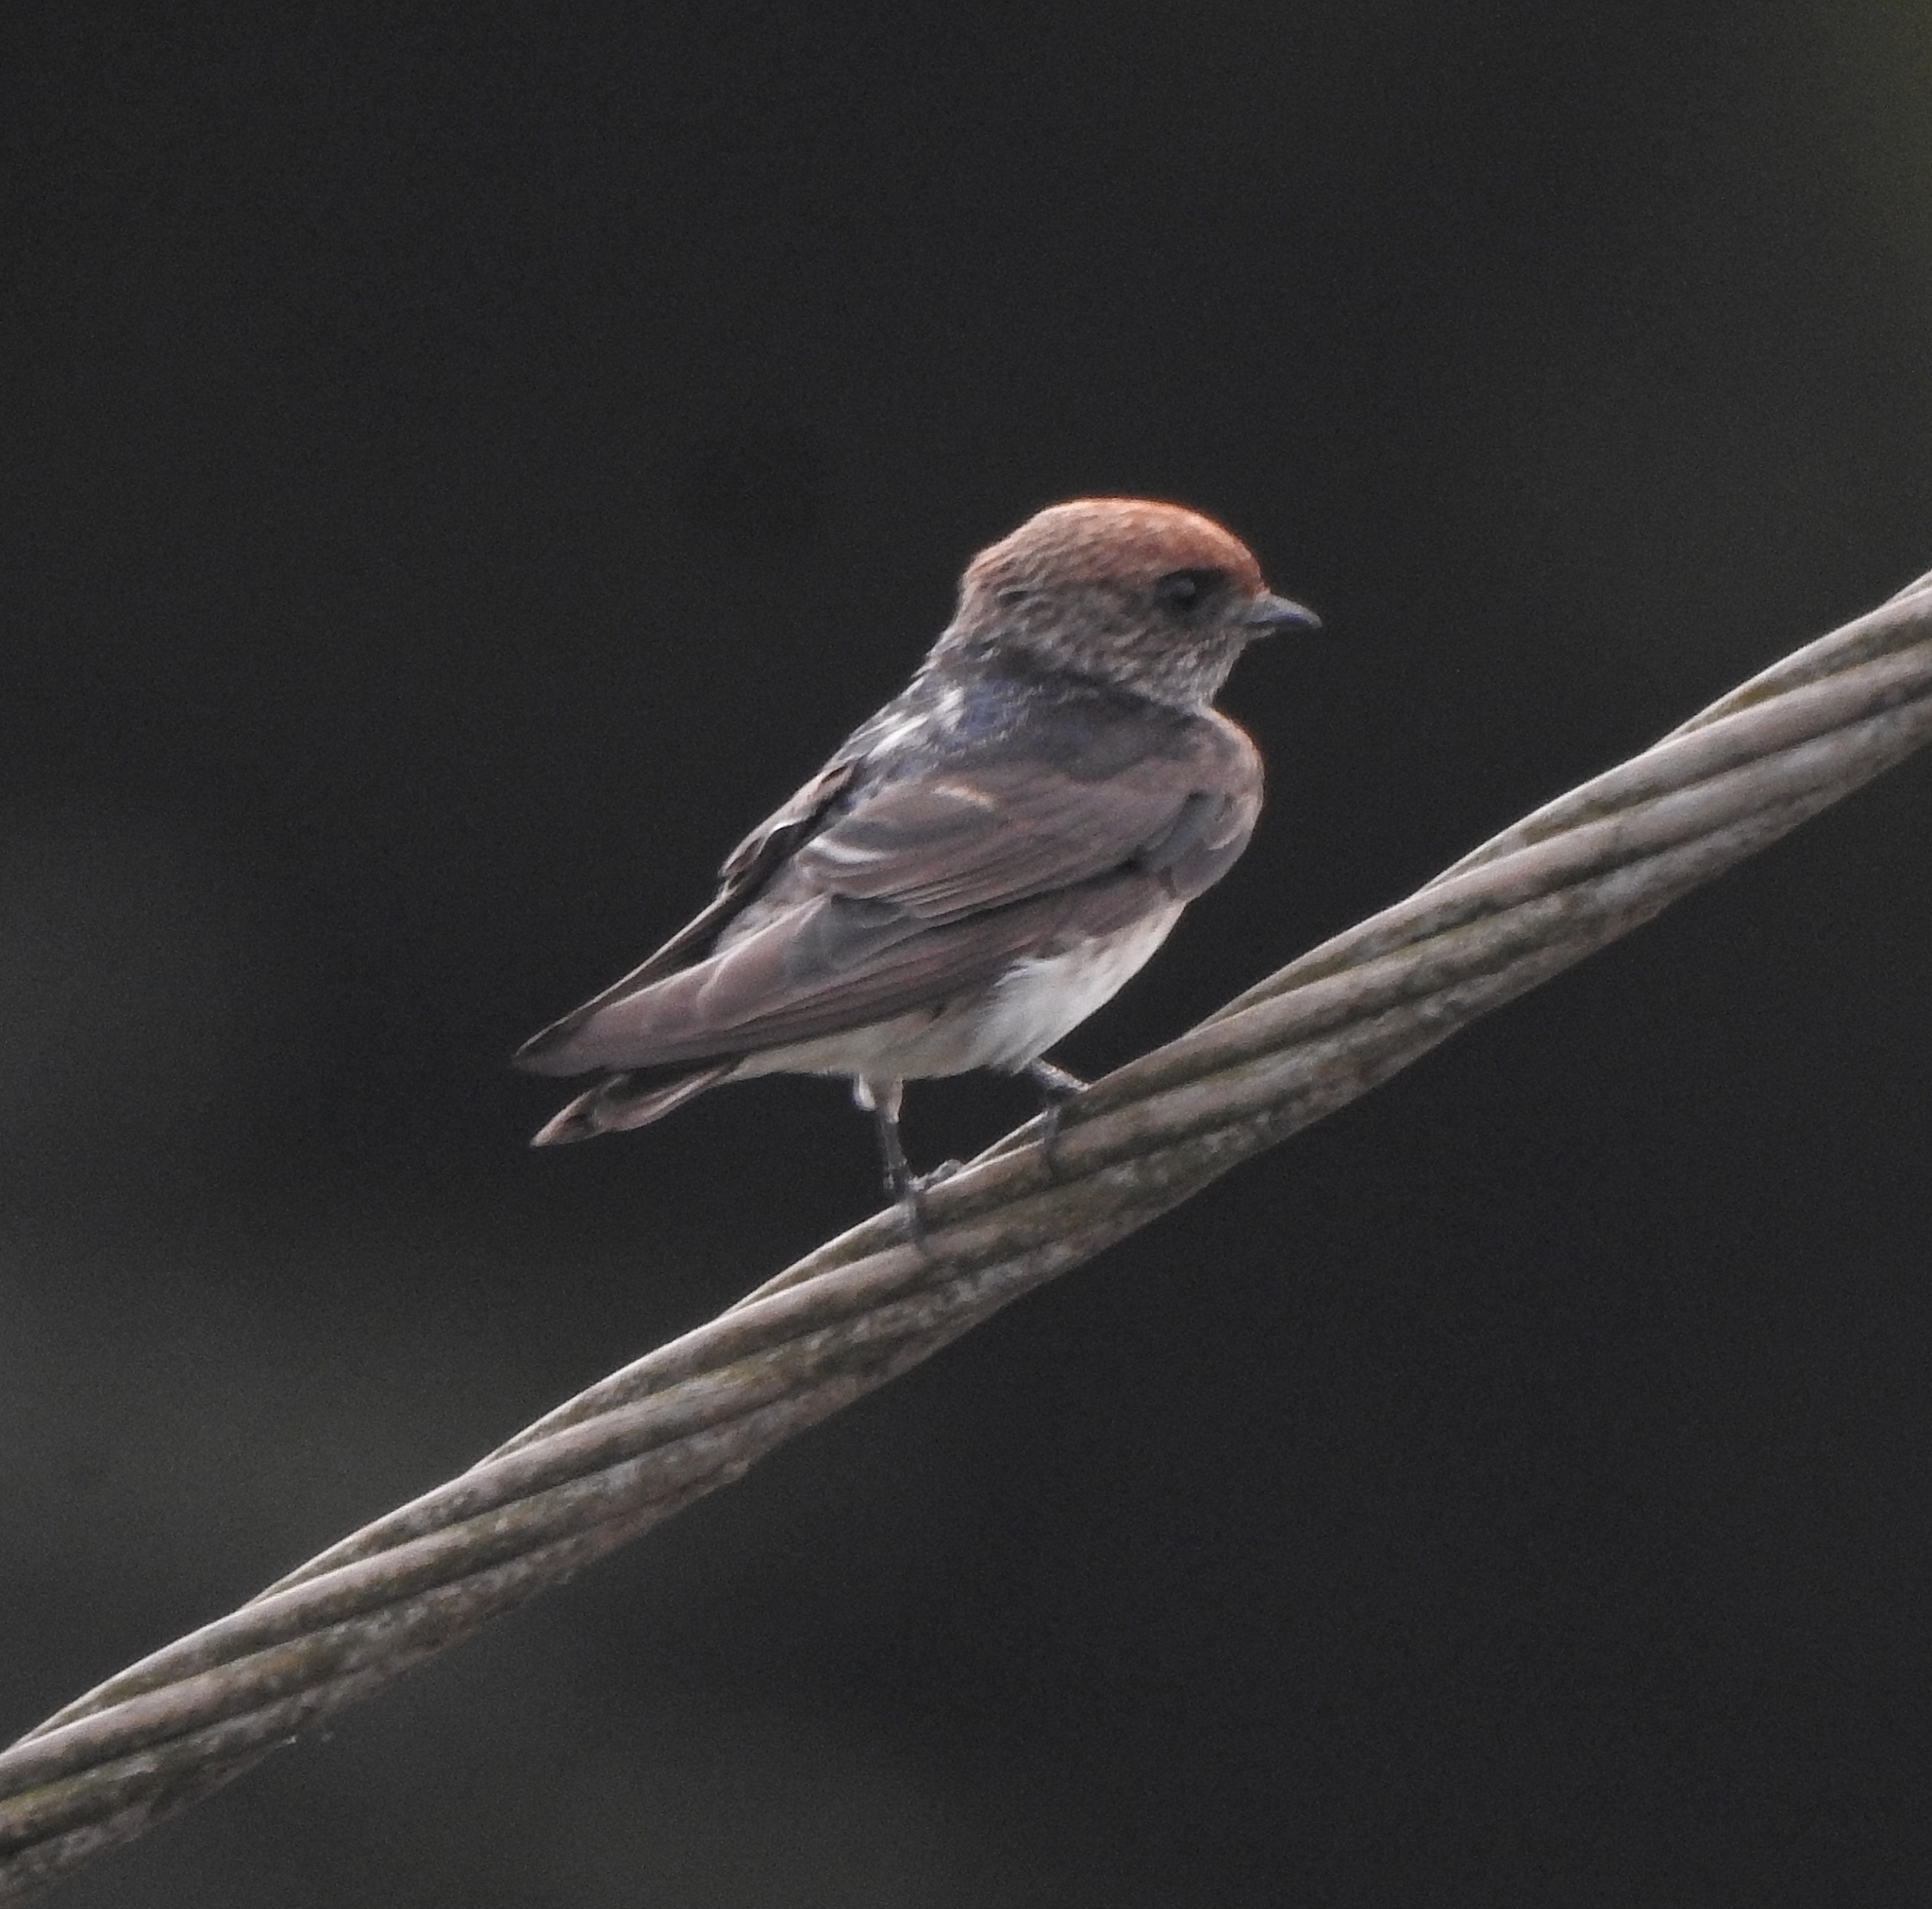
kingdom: Animalia
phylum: Chordata
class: Aves
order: Passeriformes
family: Hirundinidae
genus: Petrochelidon
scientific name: Petrochelidon fluvicola
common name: Streak-throated swallow
